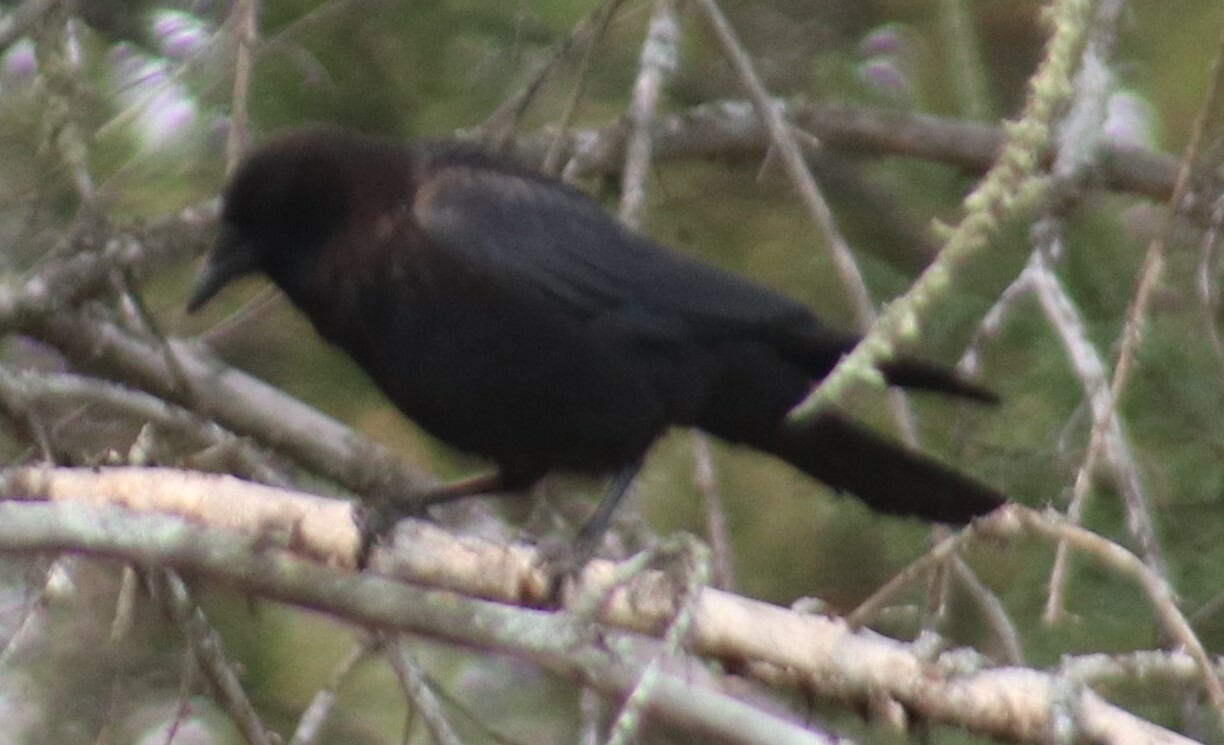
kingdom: Animalia
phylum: Chordata
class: Aves
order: Passeriformes
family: Corvidae
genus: Corvus
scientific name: Corvus brachyrhynchos
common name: American crow
